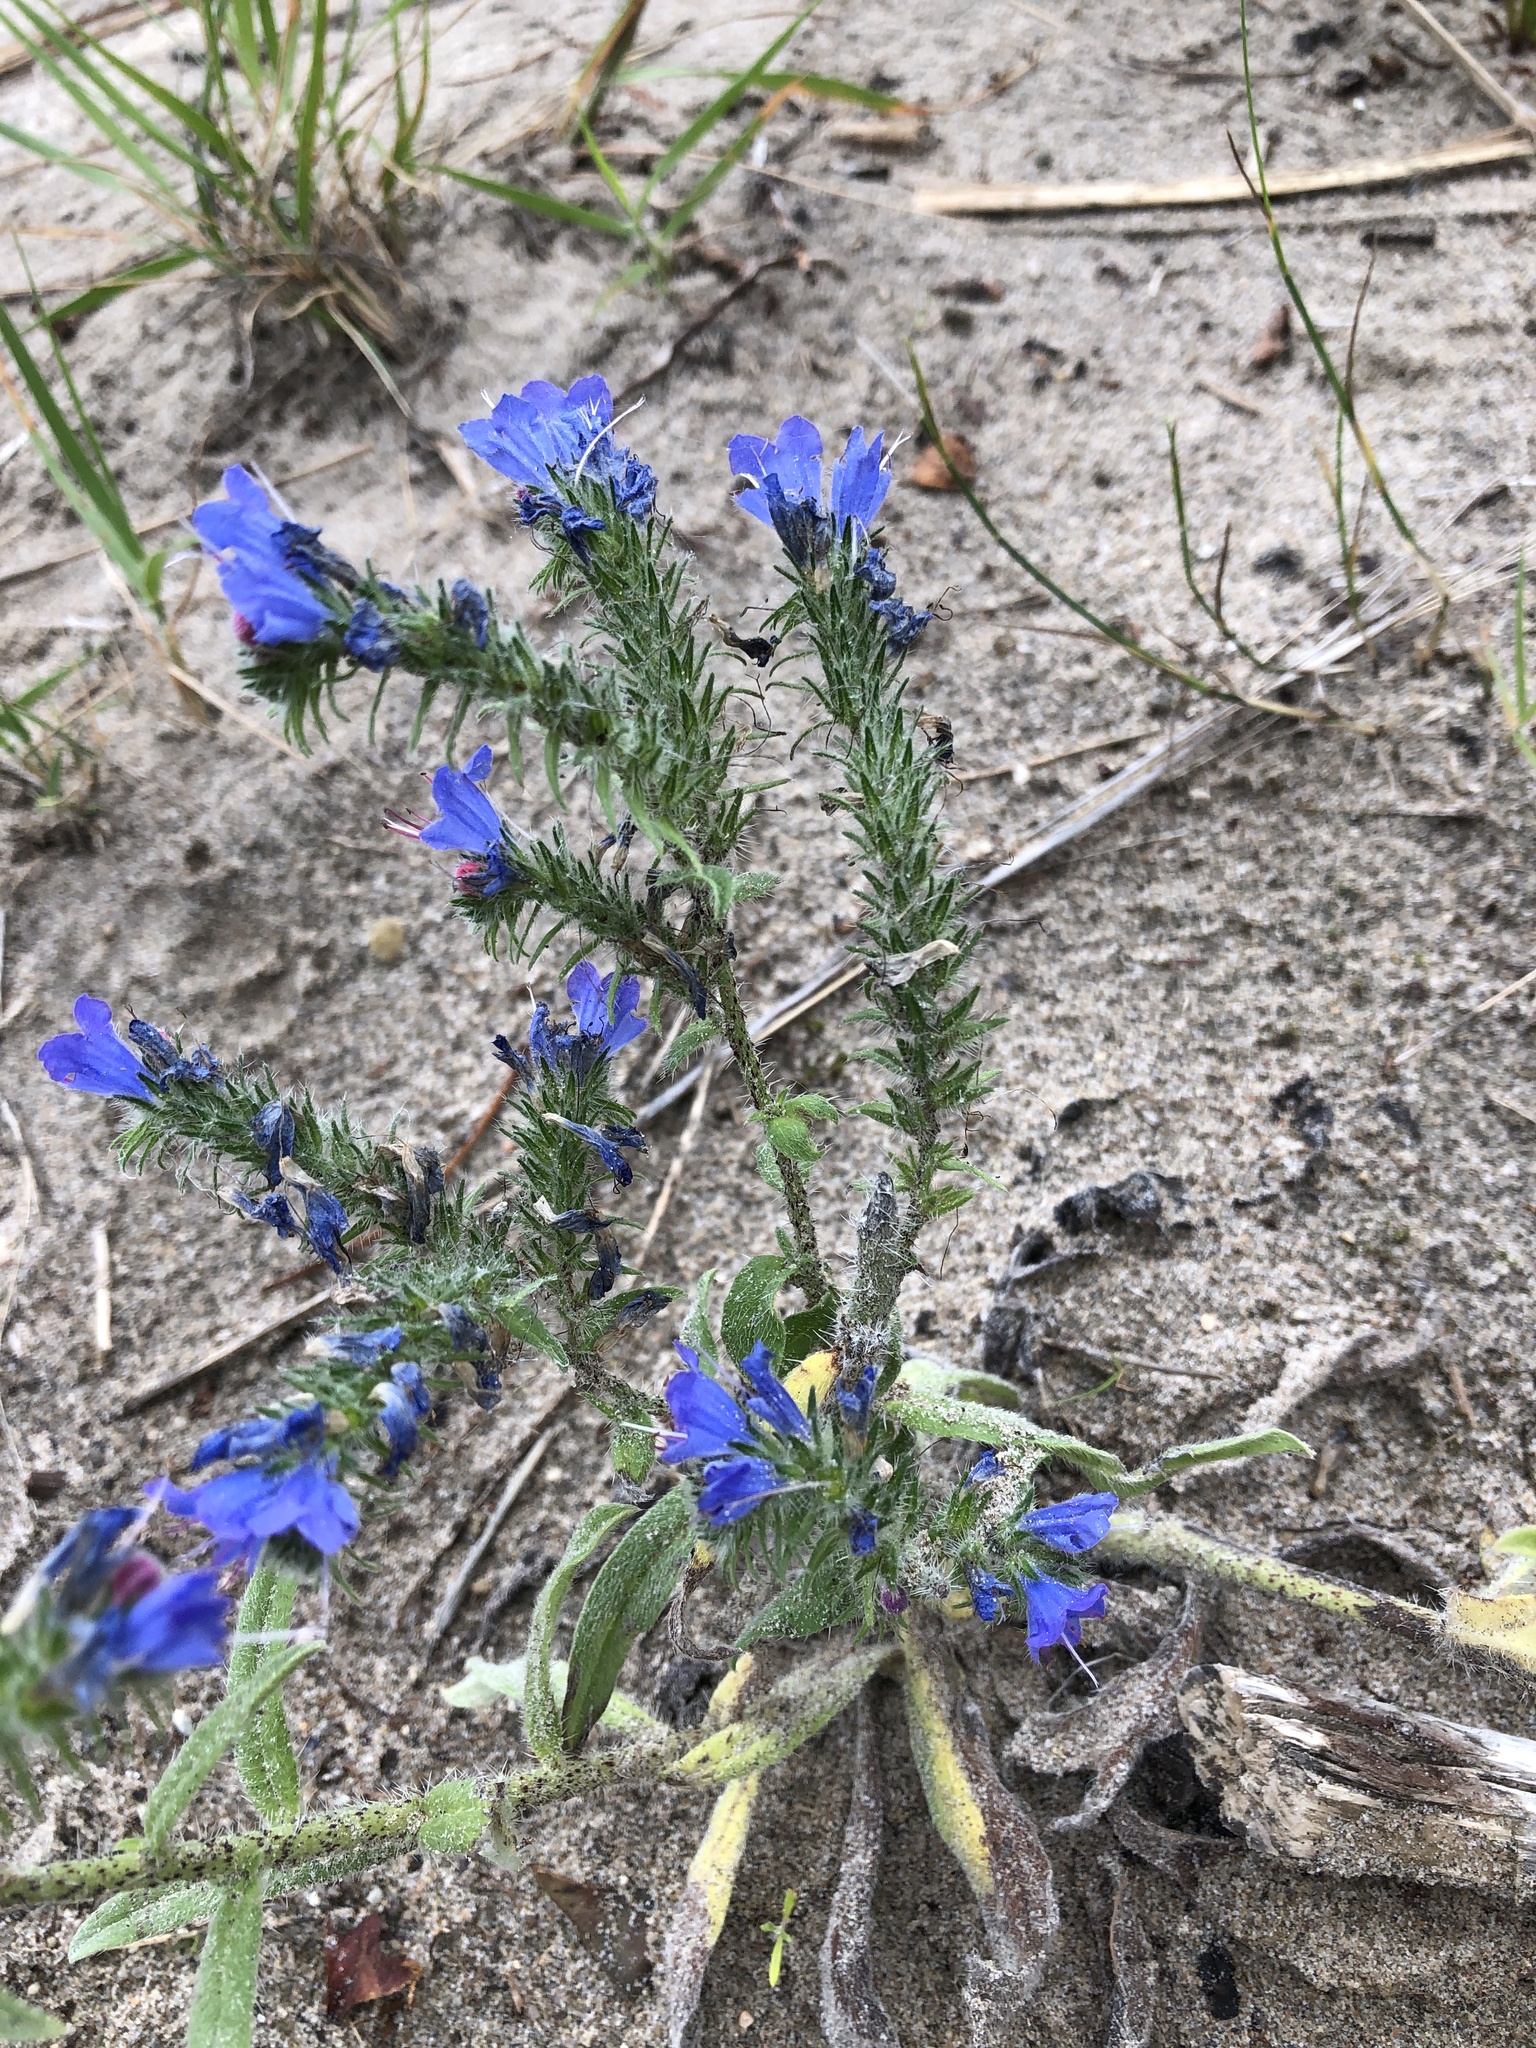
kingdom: Plantae
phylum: Tracheophyta
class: Magnoliopsida
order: Boraginales
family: Boraginaceae
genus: Echium
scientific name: Echium vulgare
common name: Common viper's bugloss
